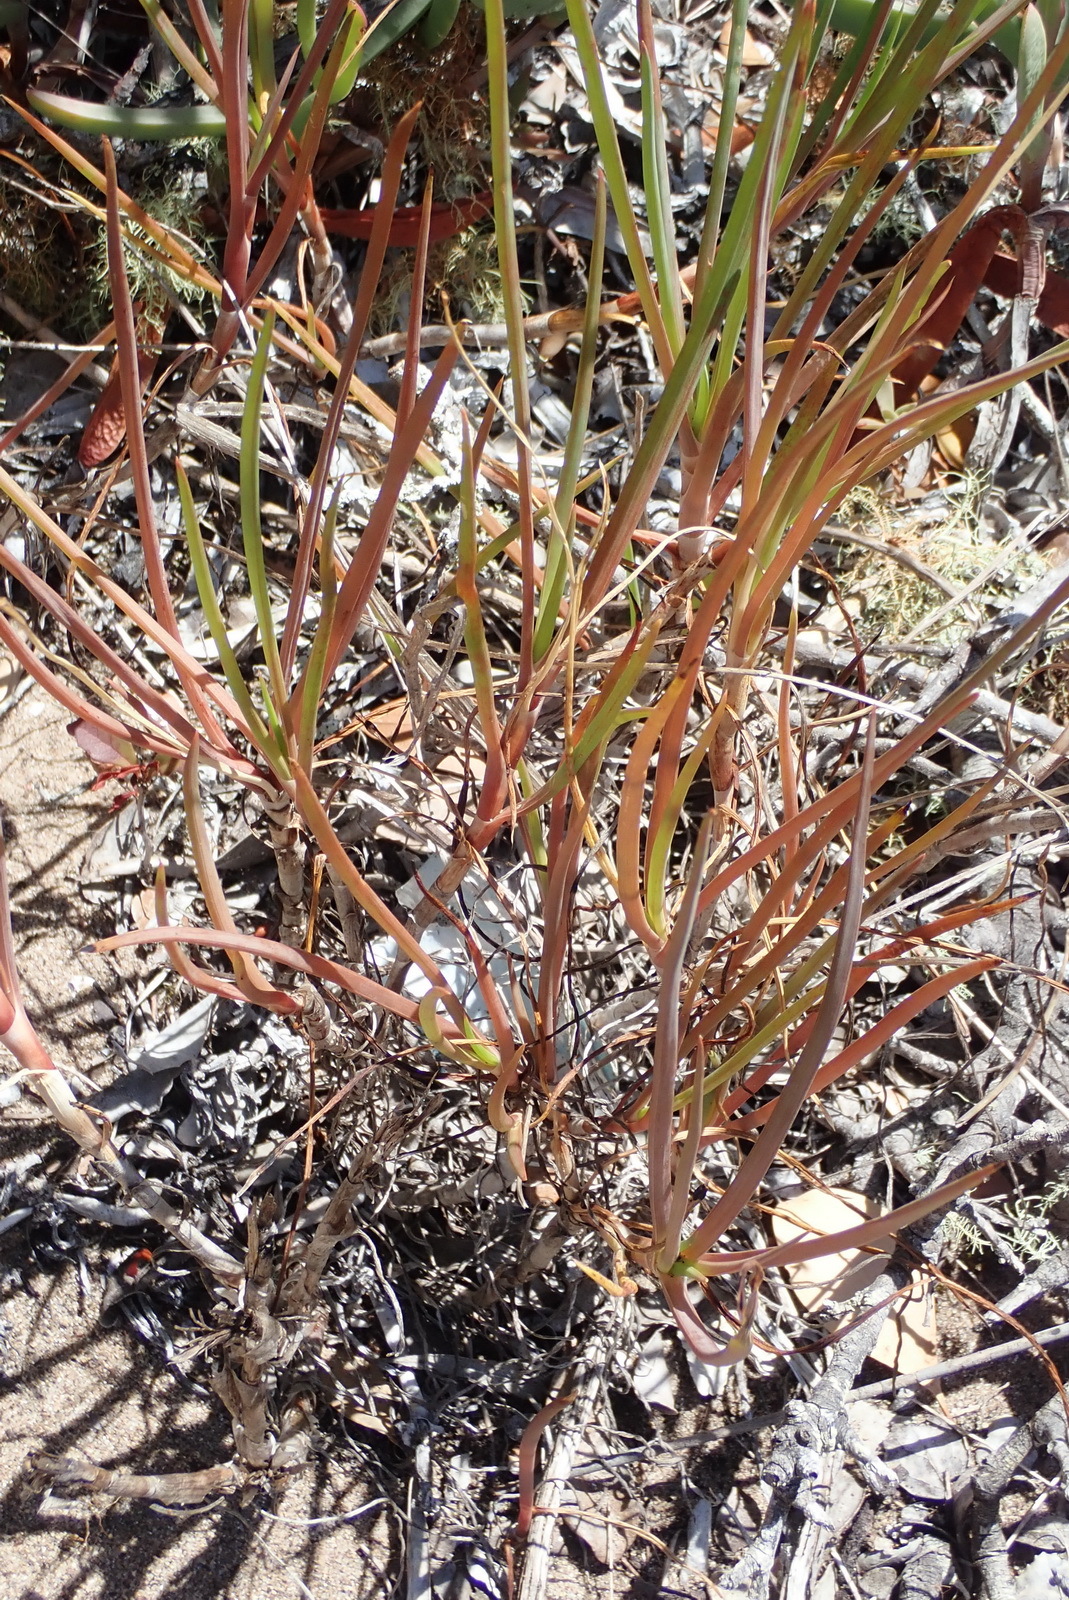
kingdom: Plantae
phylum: Tracheophyta
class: Liliopsida
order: Asparagales
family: Asphodelaceae
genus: Bulbine
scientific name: Bulbine frutescens
